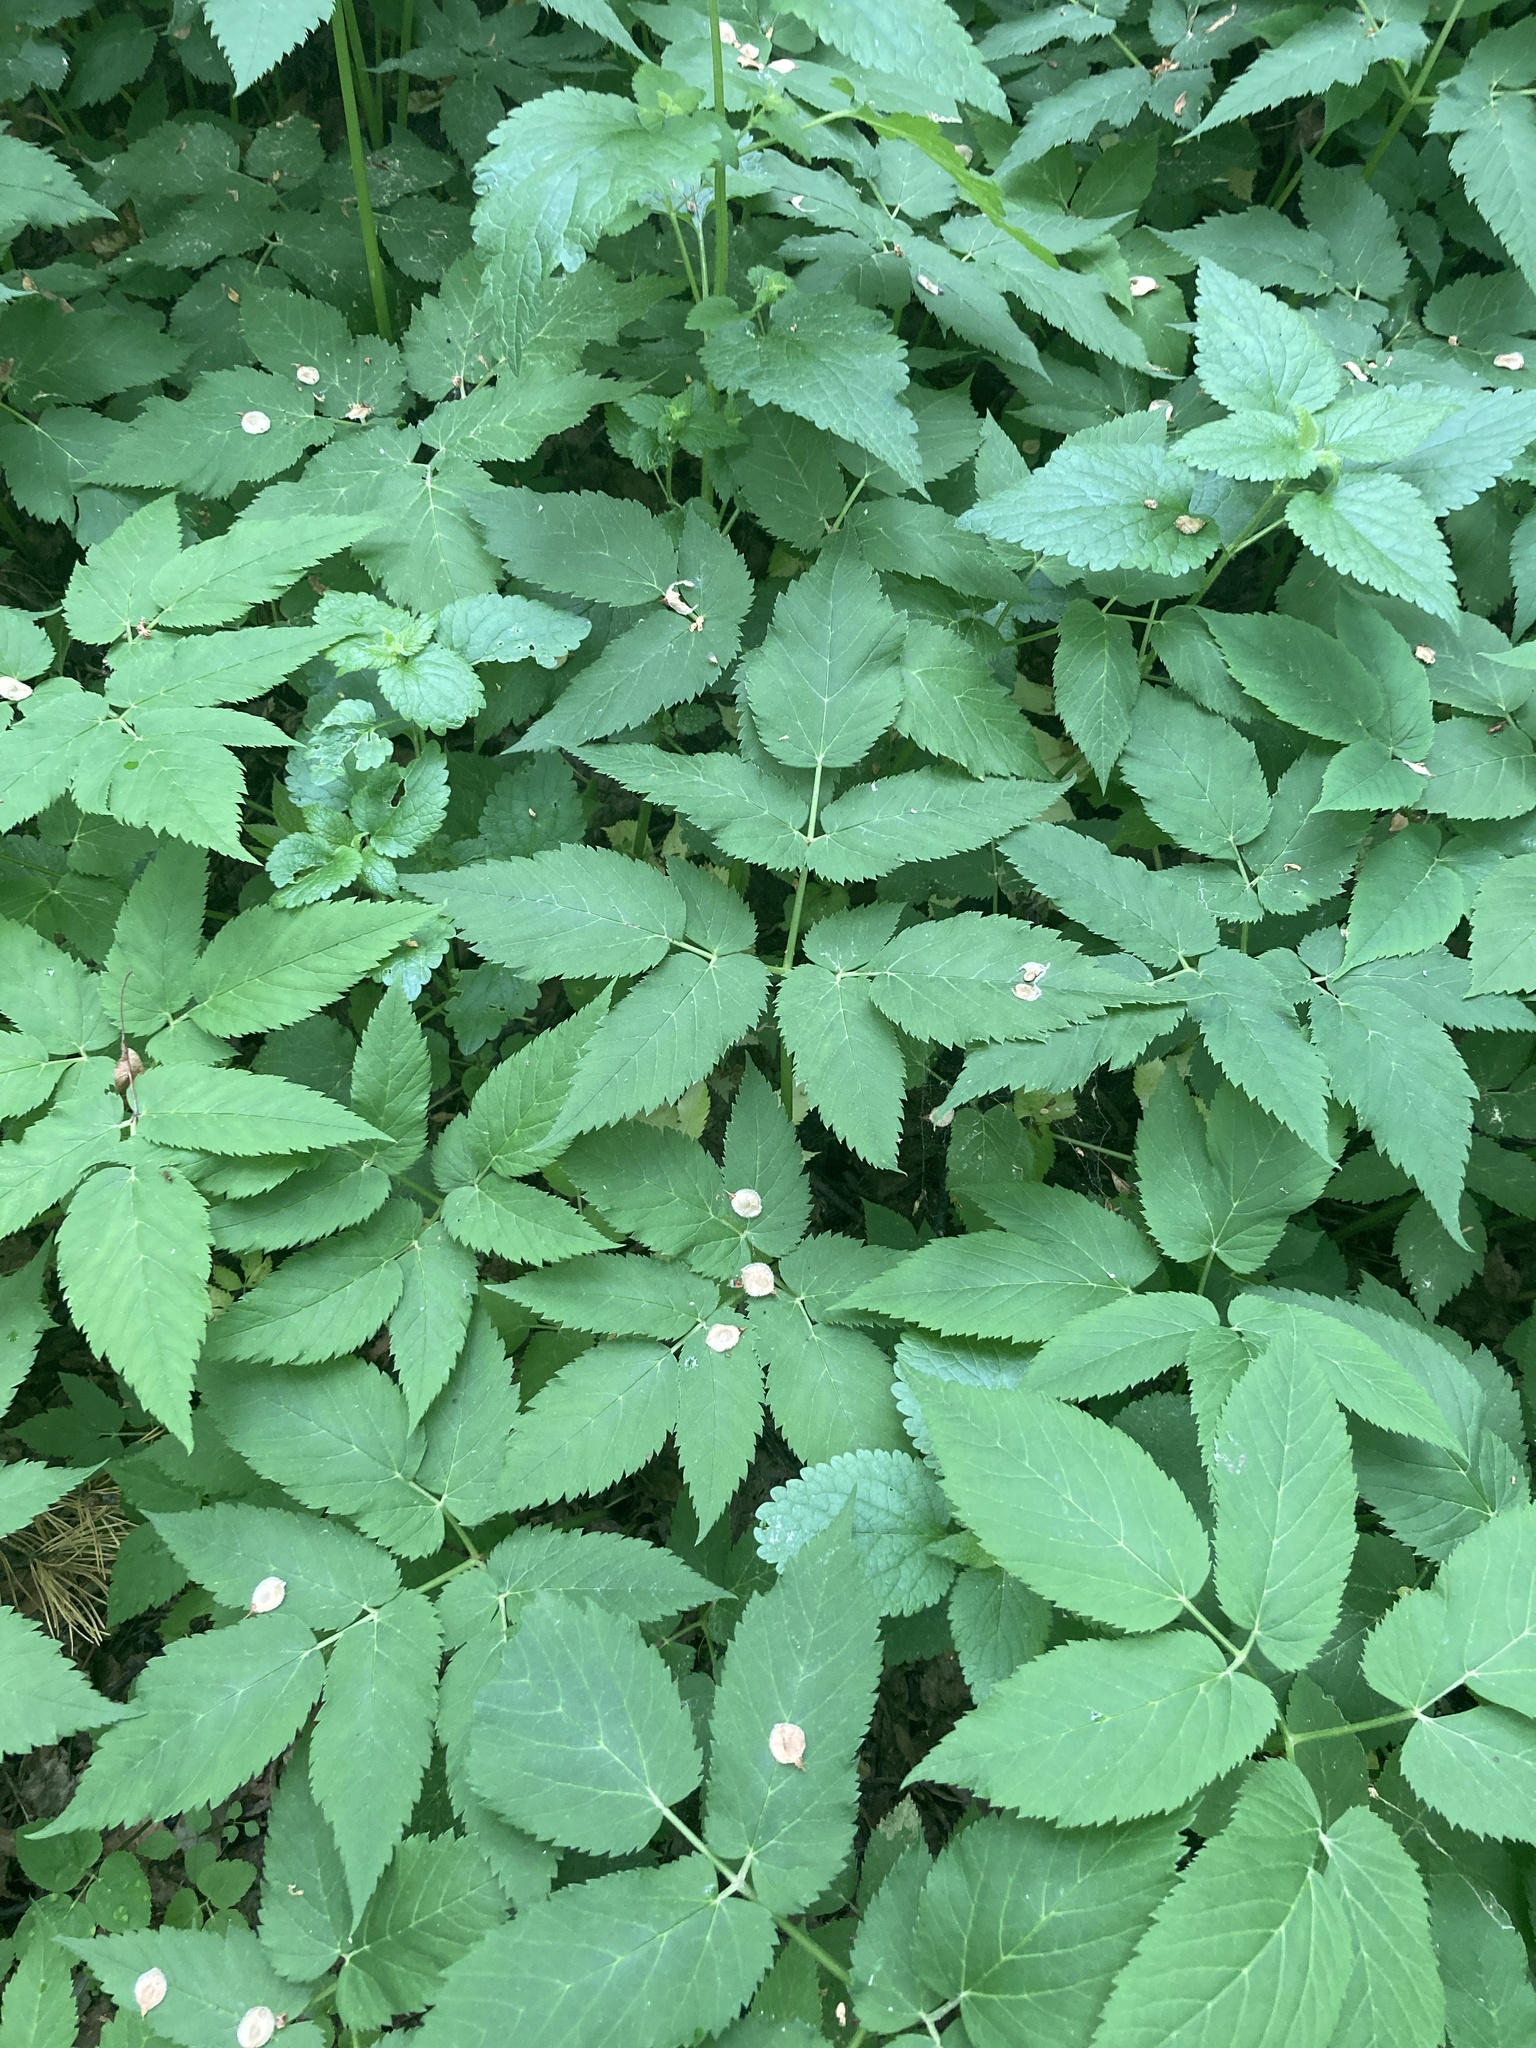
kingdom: Plantae
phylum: Tracheophyta
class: Magnoliopsida
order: Apiales
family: Apiaceae
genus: Aegopodium
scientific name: Aegopodium podagraria
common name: Ground-elder
